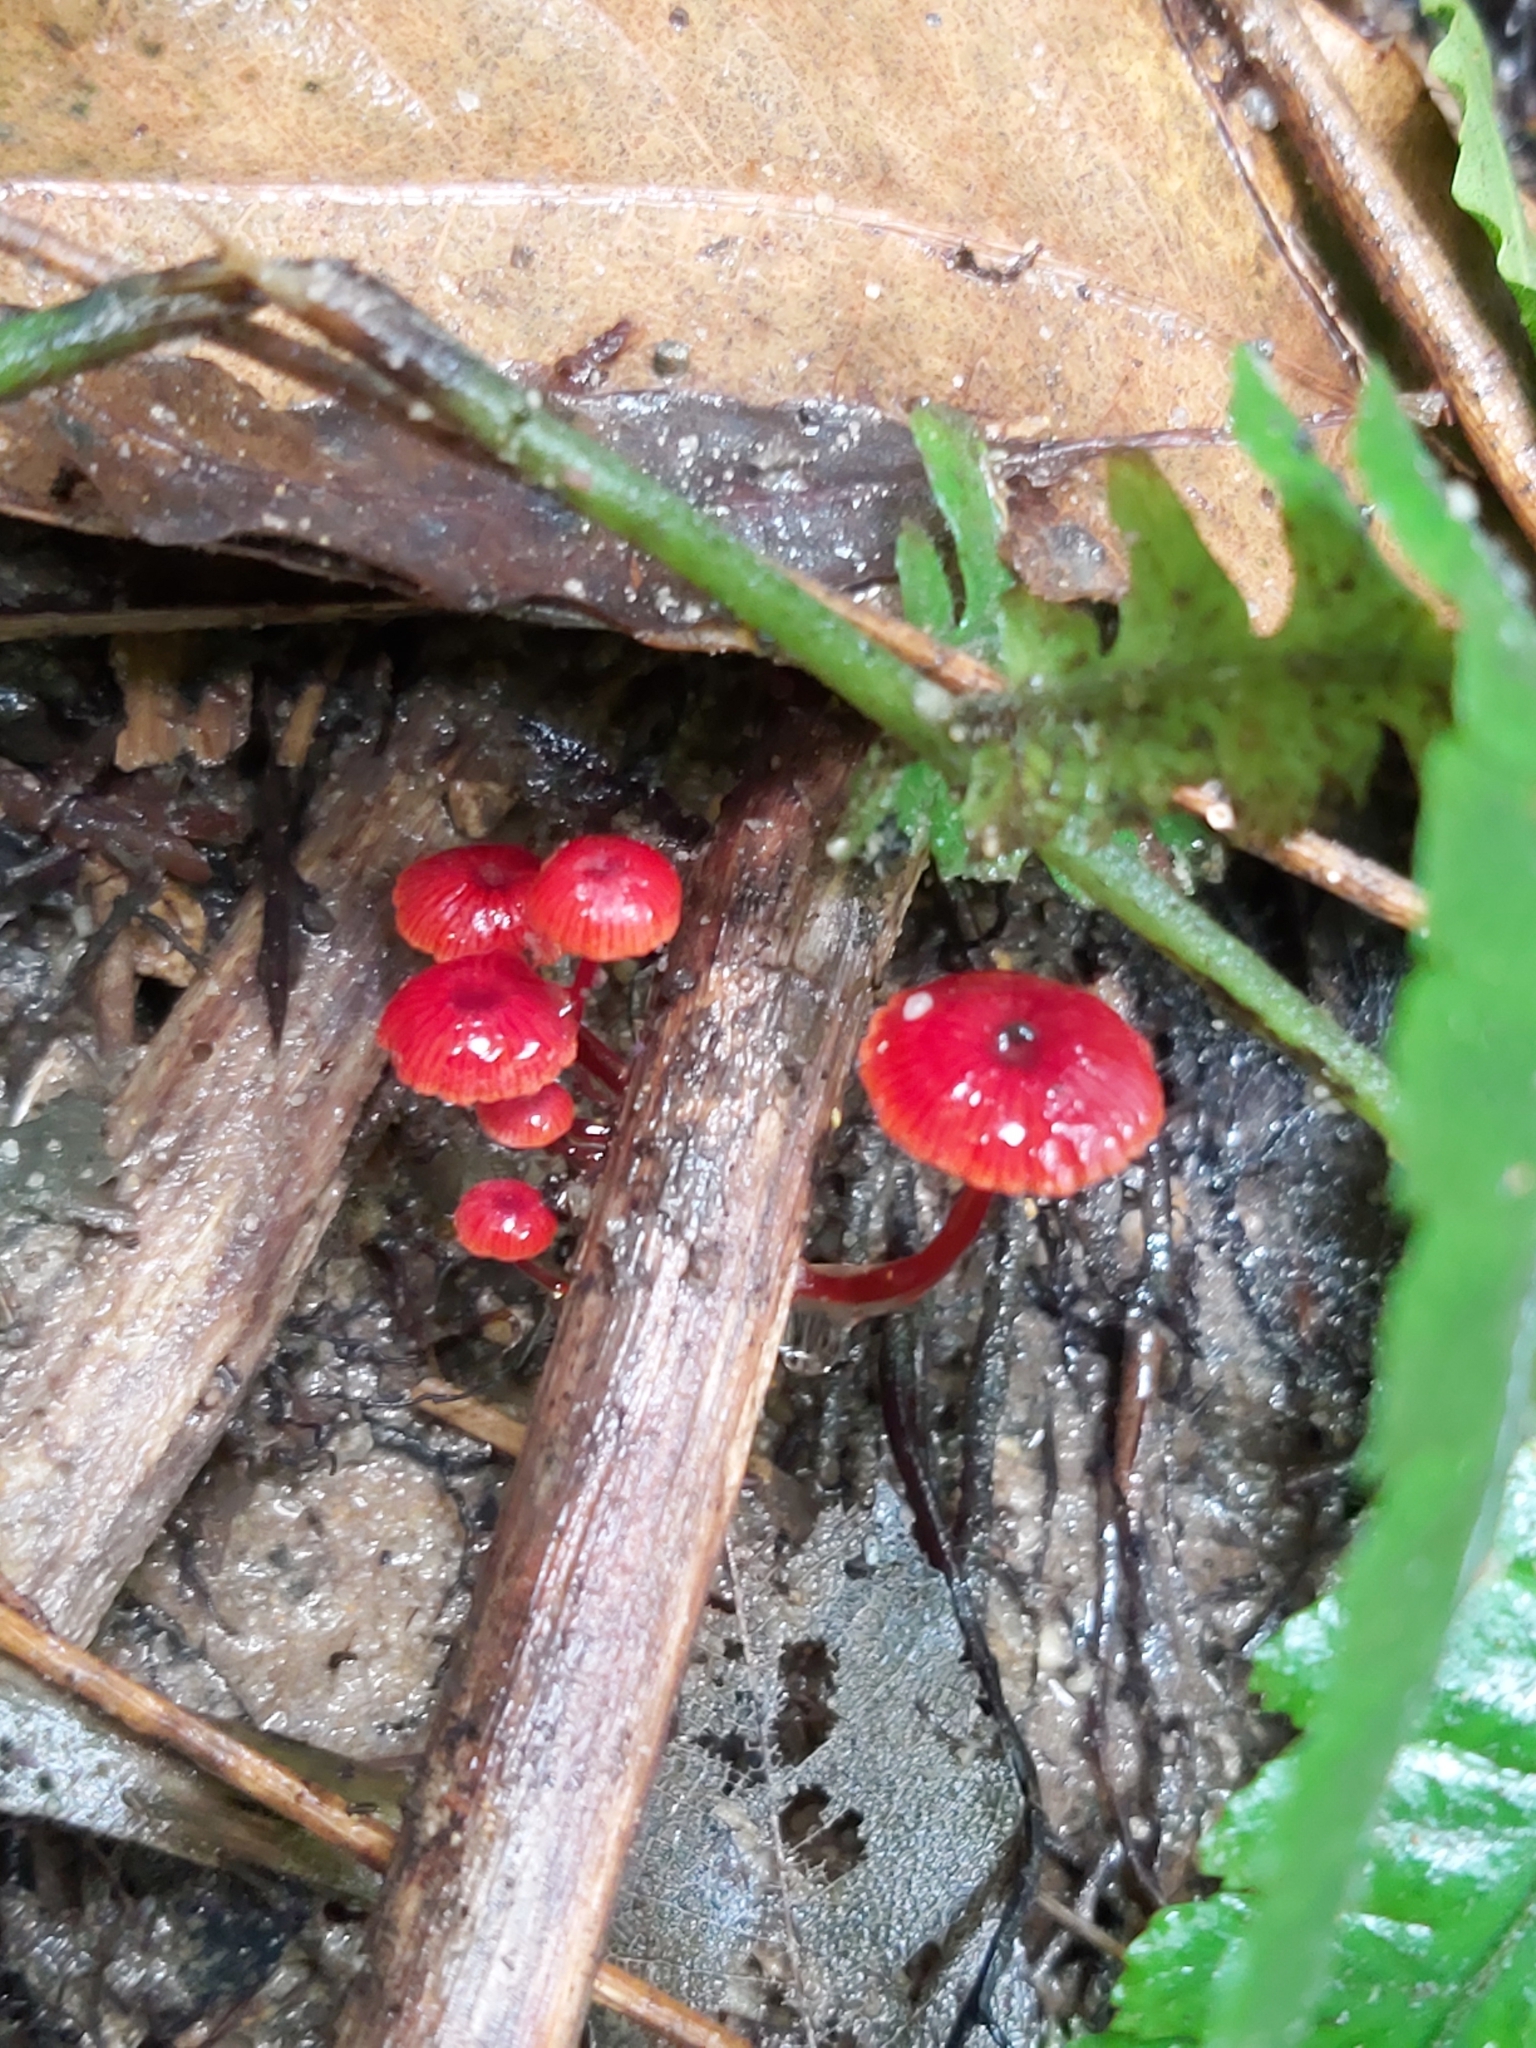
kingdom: Fungi
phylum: Basidiomycota
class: Agaricomycetes
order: Agaricales
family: Mycenaceae
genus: Cruentomycena
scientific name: Cruentomycena viscidocruenta
